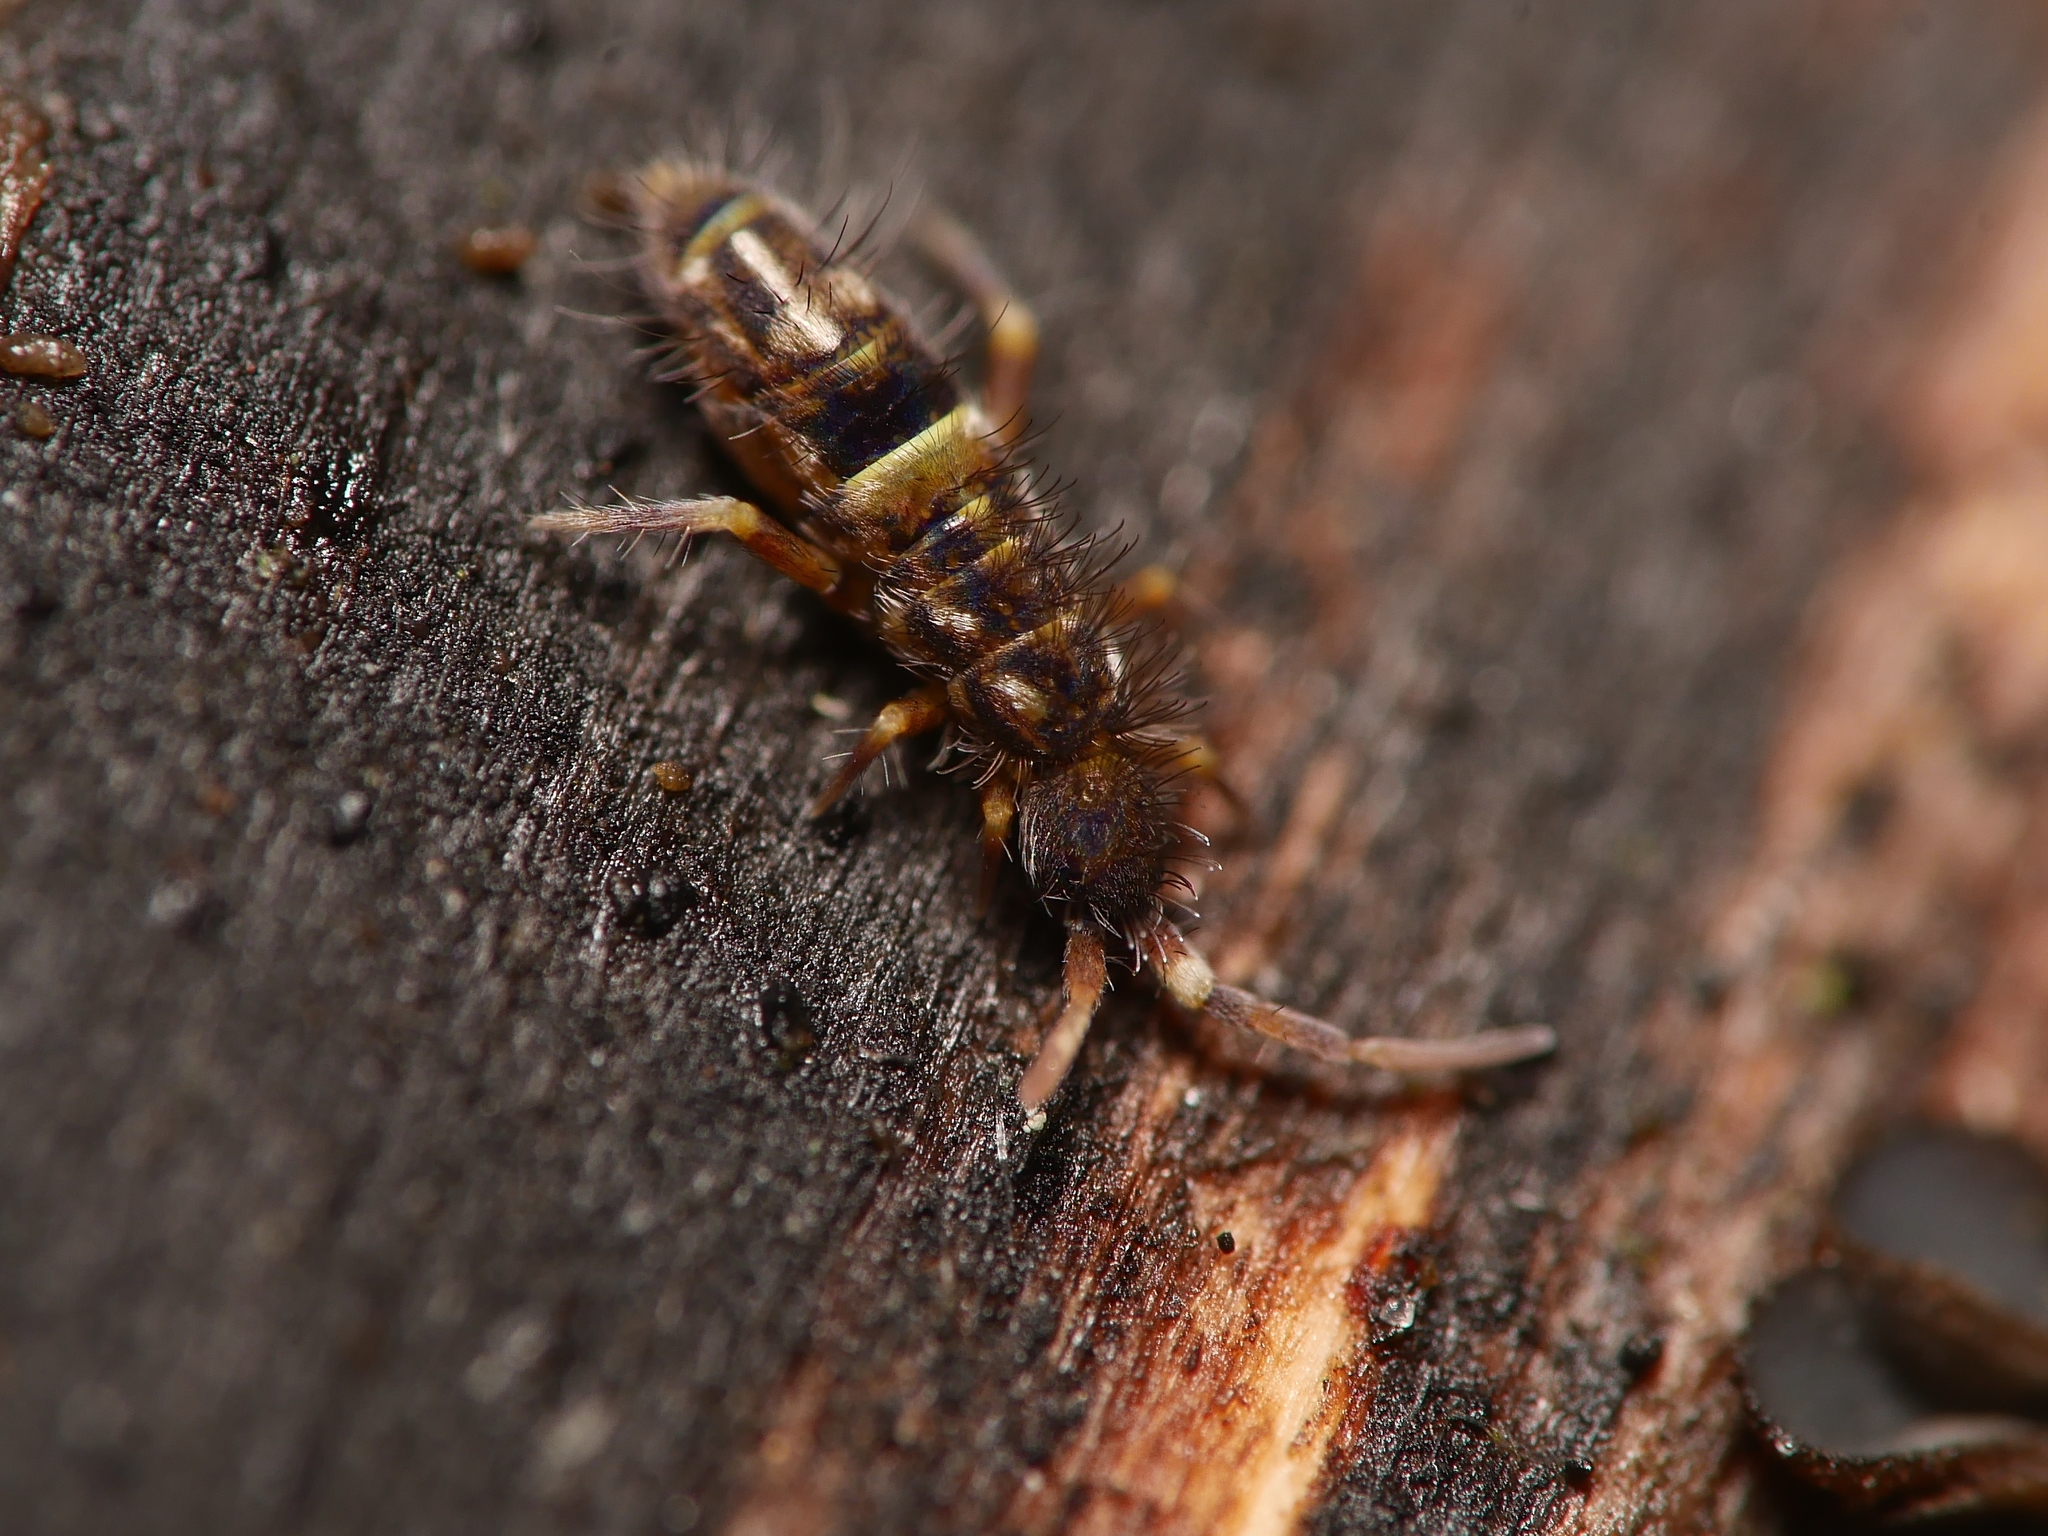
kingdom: Animalia
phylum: Arthropoda
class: Collembola
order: Entomobryomorpha
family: Orchesellidae
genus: Orchesella
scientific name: Orchesella cincta
